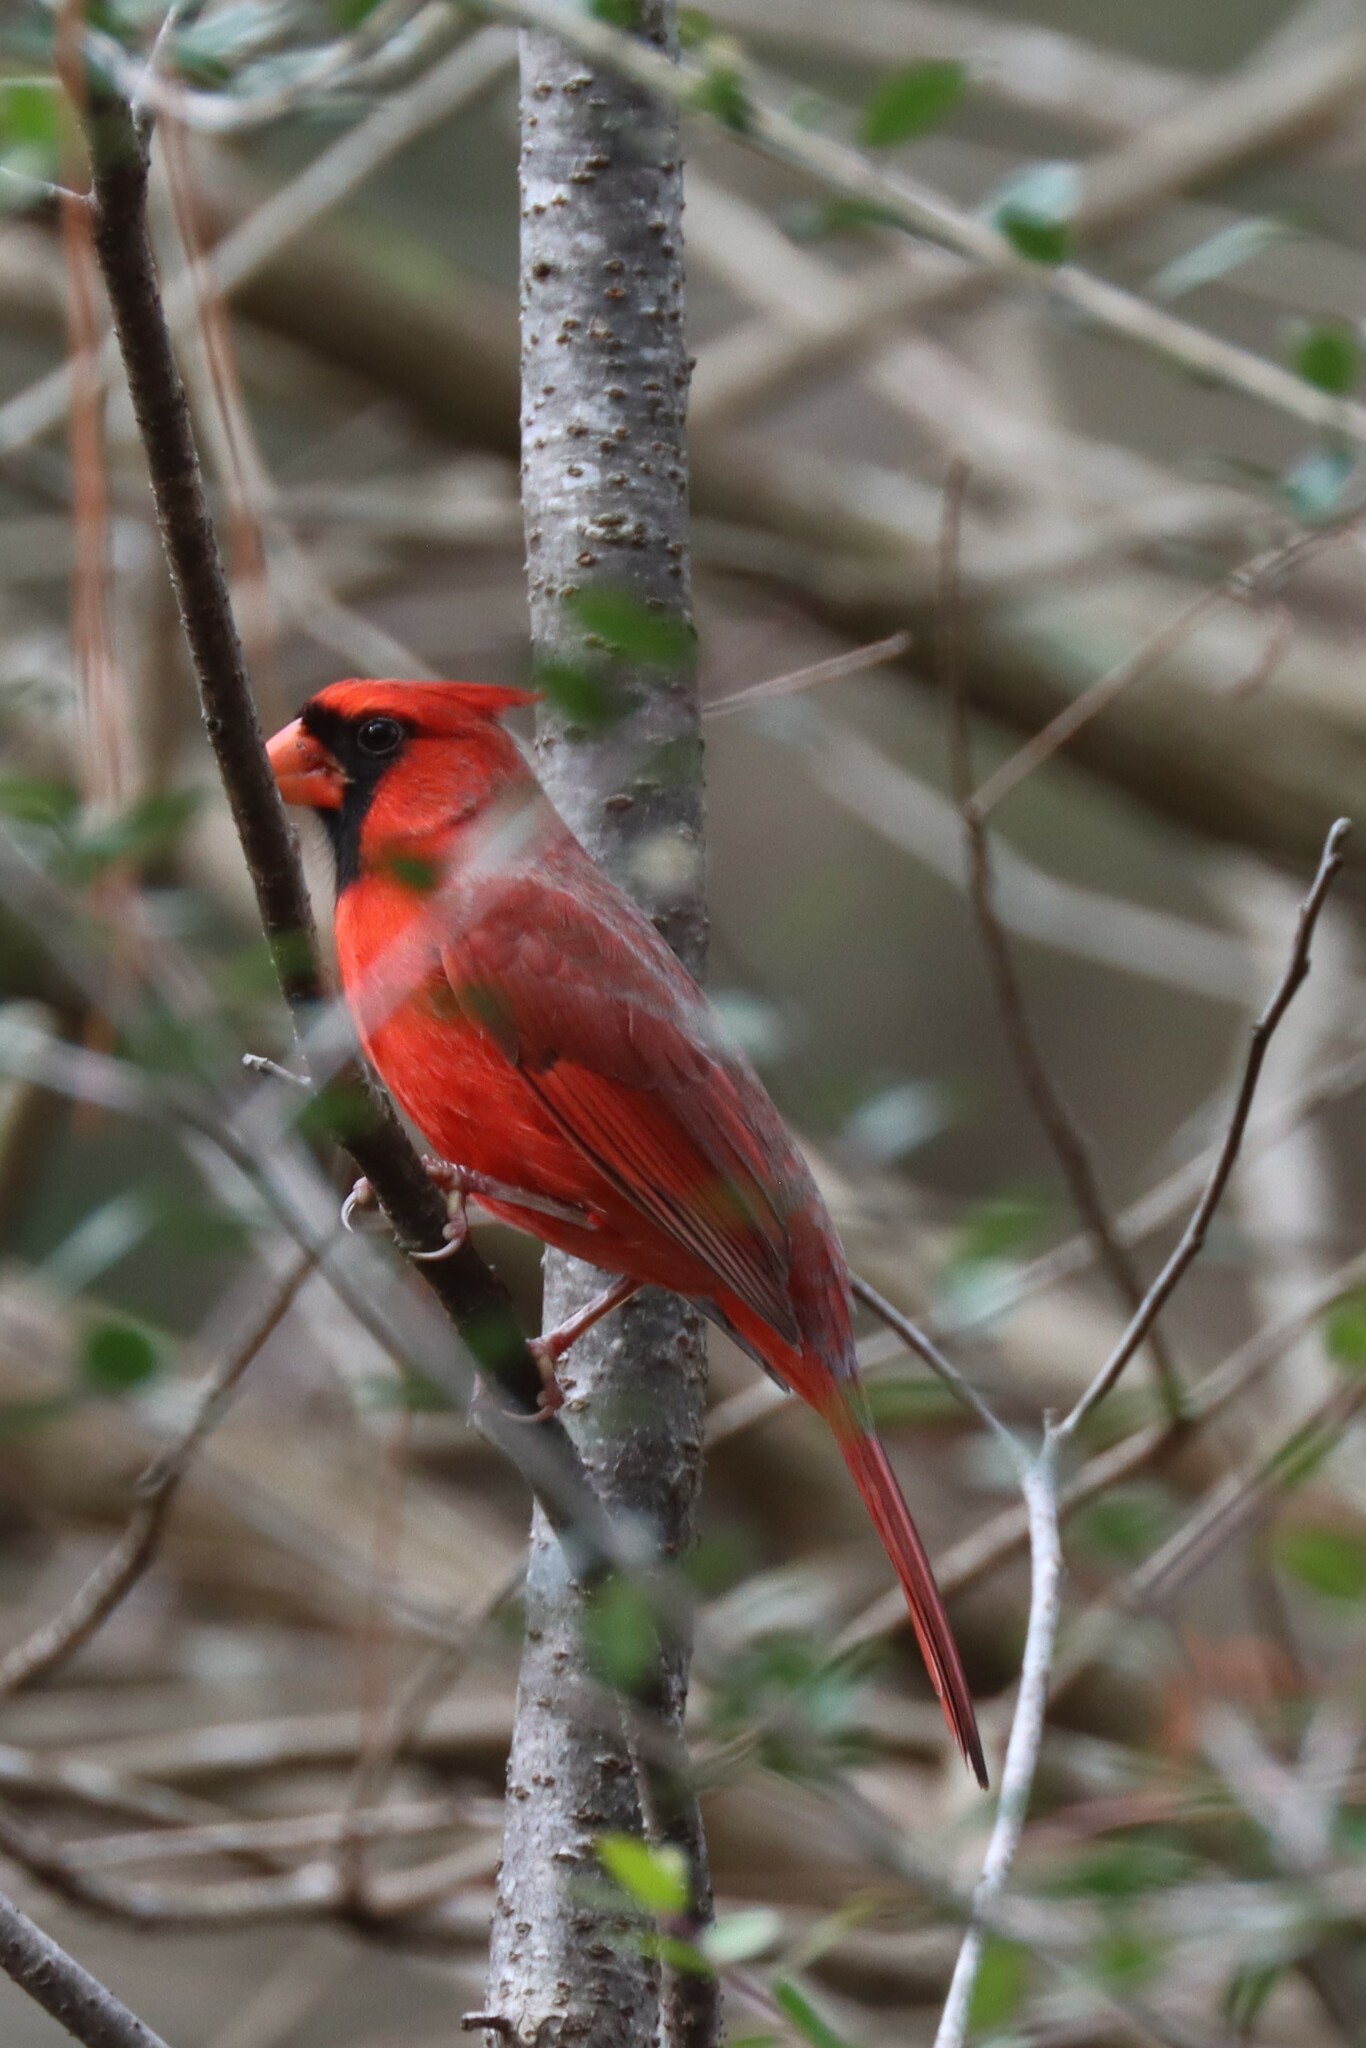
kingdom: Animalia
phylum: Chordata
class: Aves
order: Passeriformes
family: Cardinalidae
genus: Cardinalis
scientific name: Cardinalis cardinalis
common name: Northern cardinal
